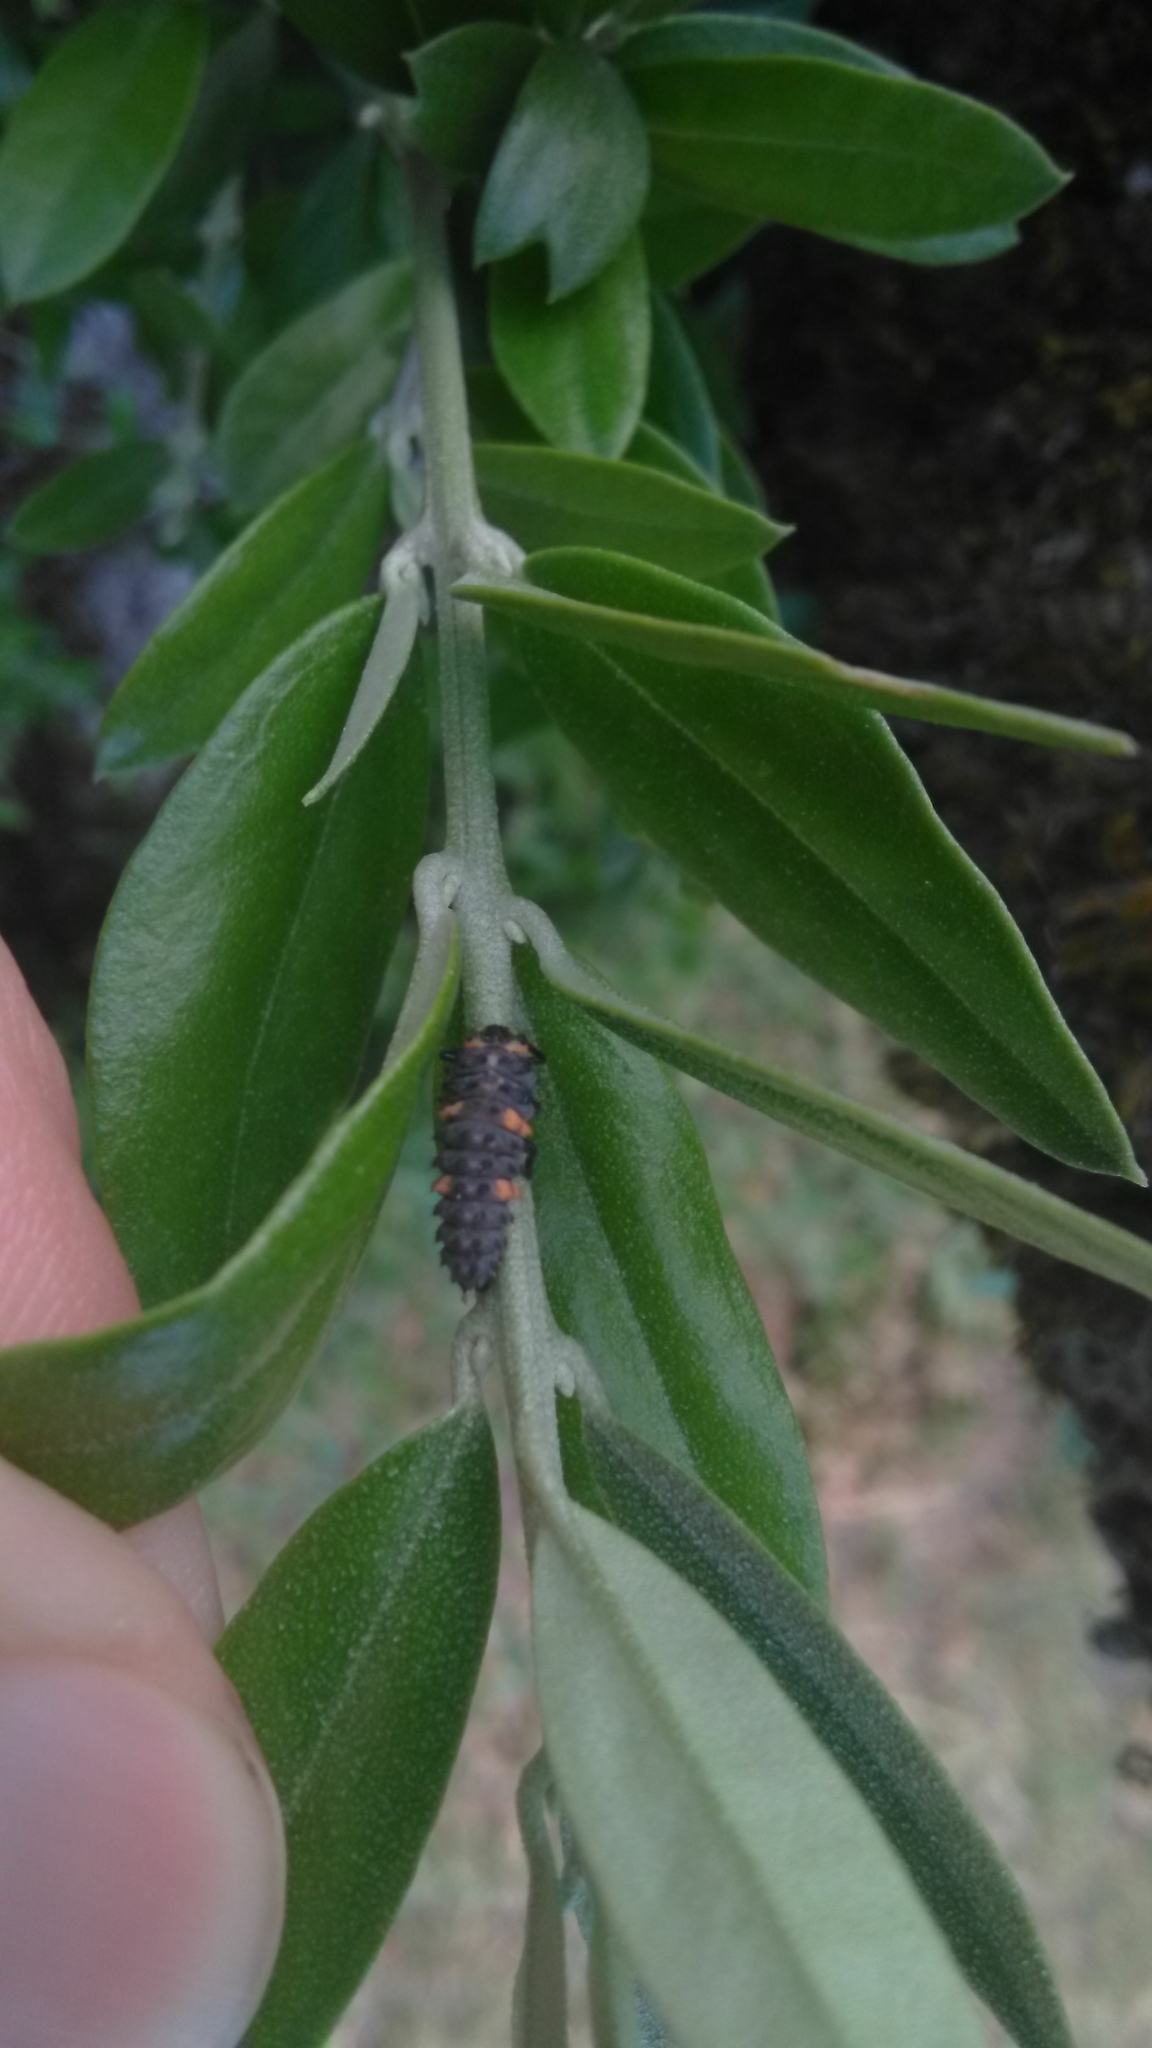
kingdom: Animalia
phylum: Arthropoda
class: Insecta
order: Coleoptera
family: Coccinellidae
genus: Coccinella
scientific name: Coccinella septempunctata
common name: Sevenspotted lady beetle
